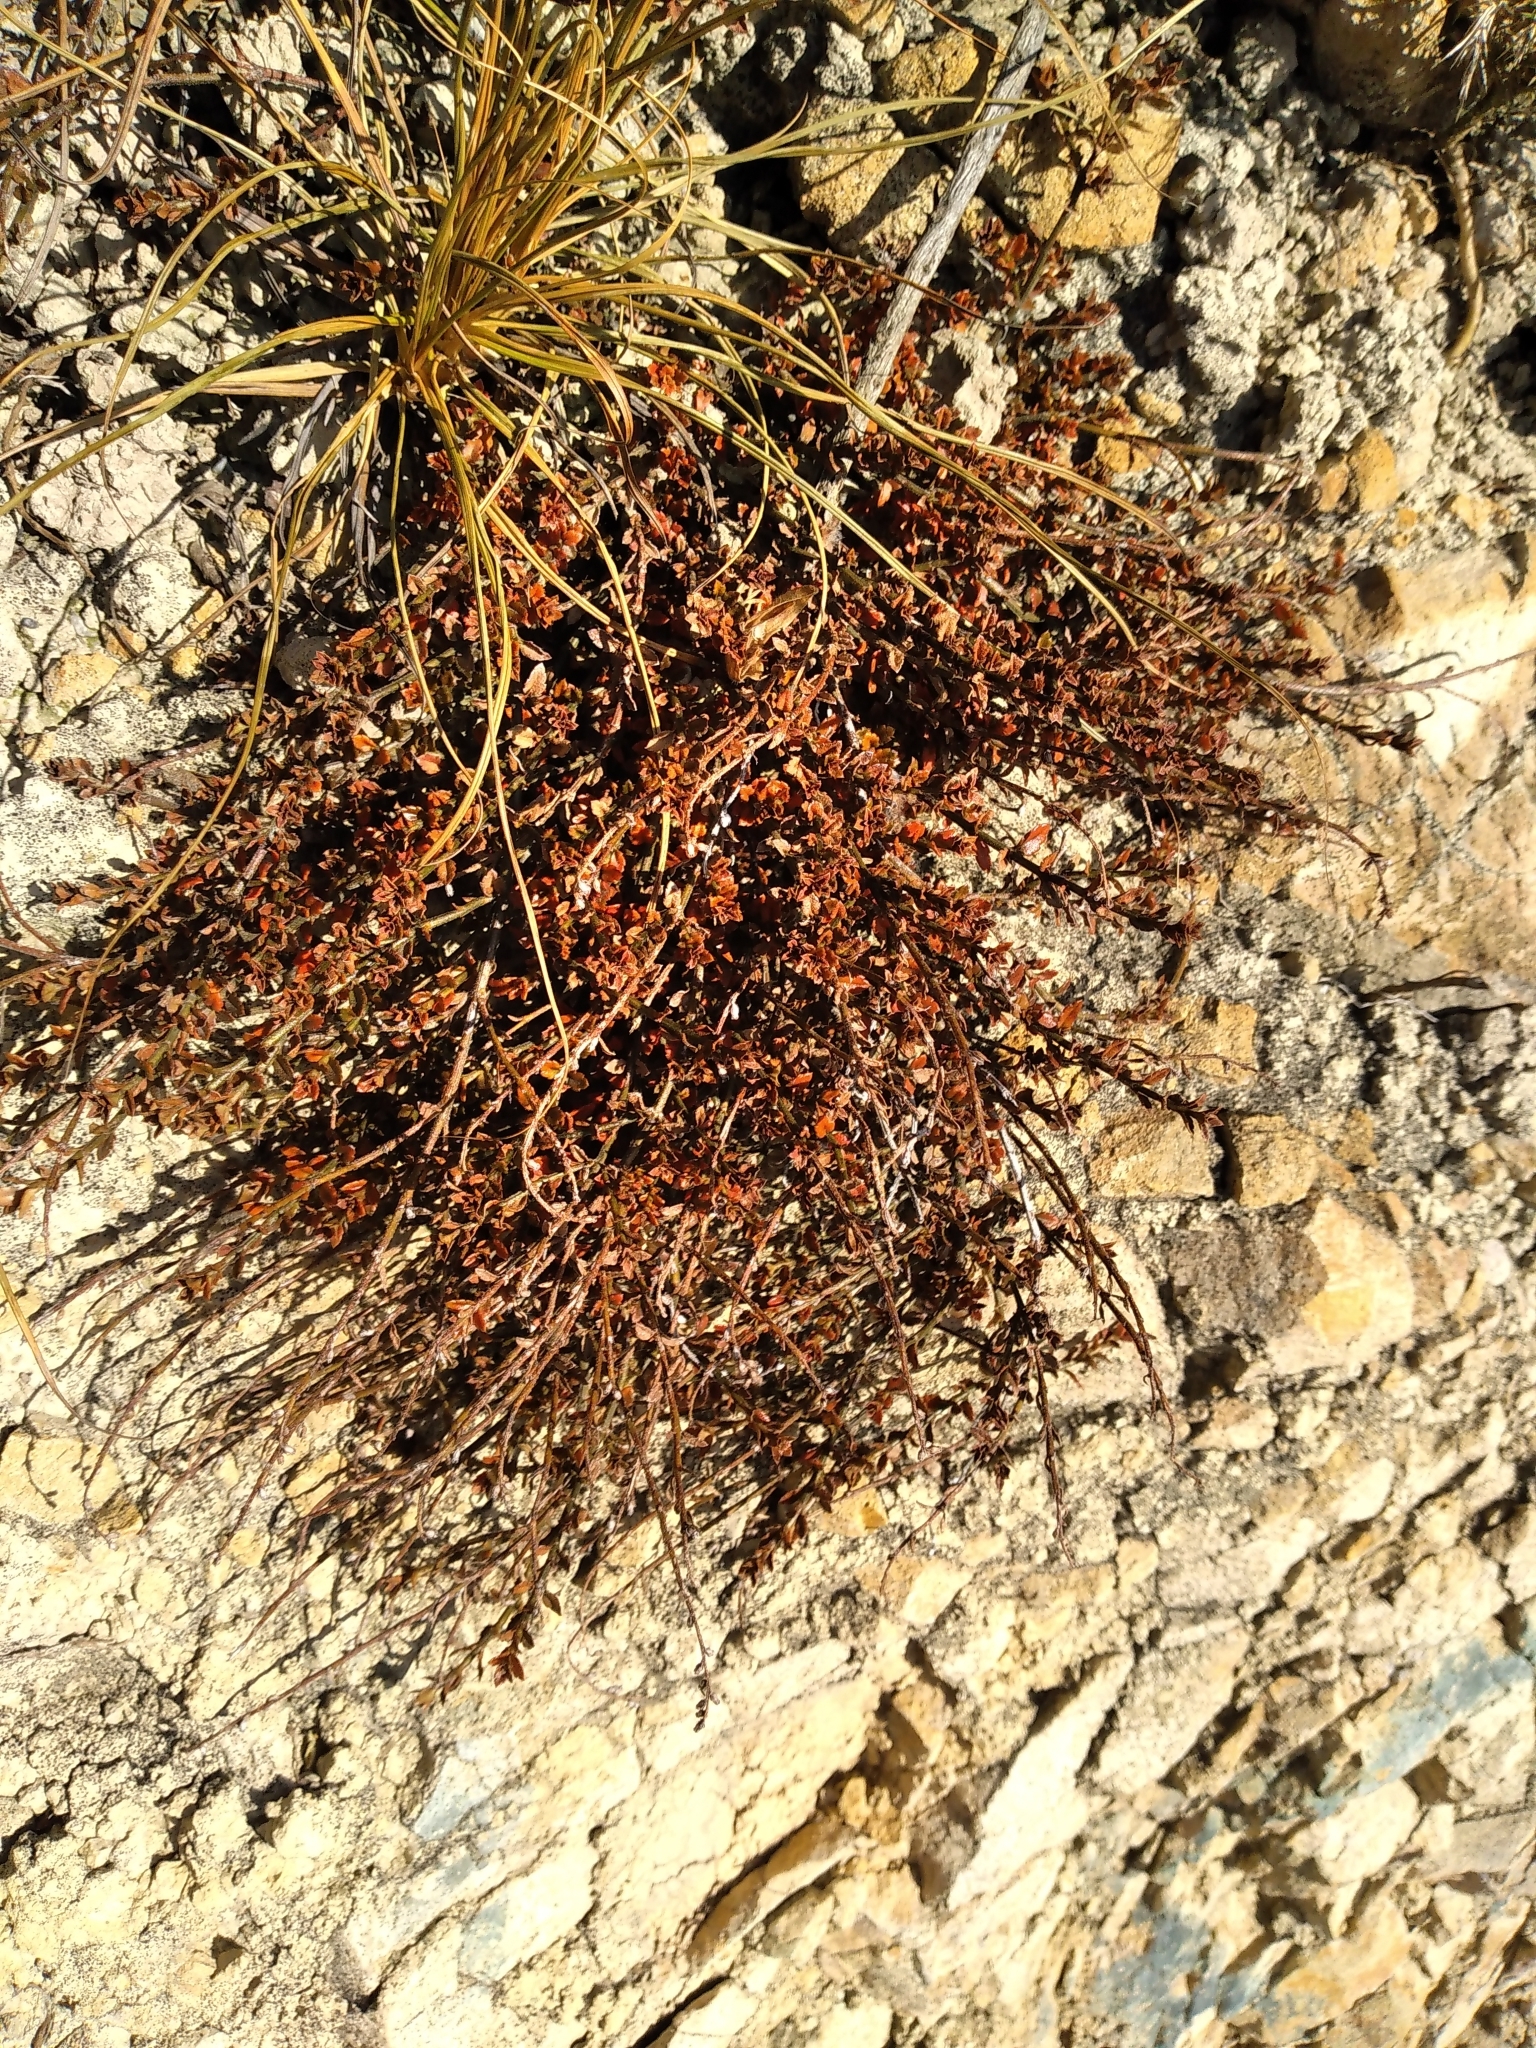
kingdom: Plantae
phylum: Tracheophyta
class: Magnoliopsida
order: Saxifragales
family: Haloragaceae
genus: Gonocarpus
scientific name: Gonocarpus incanus
